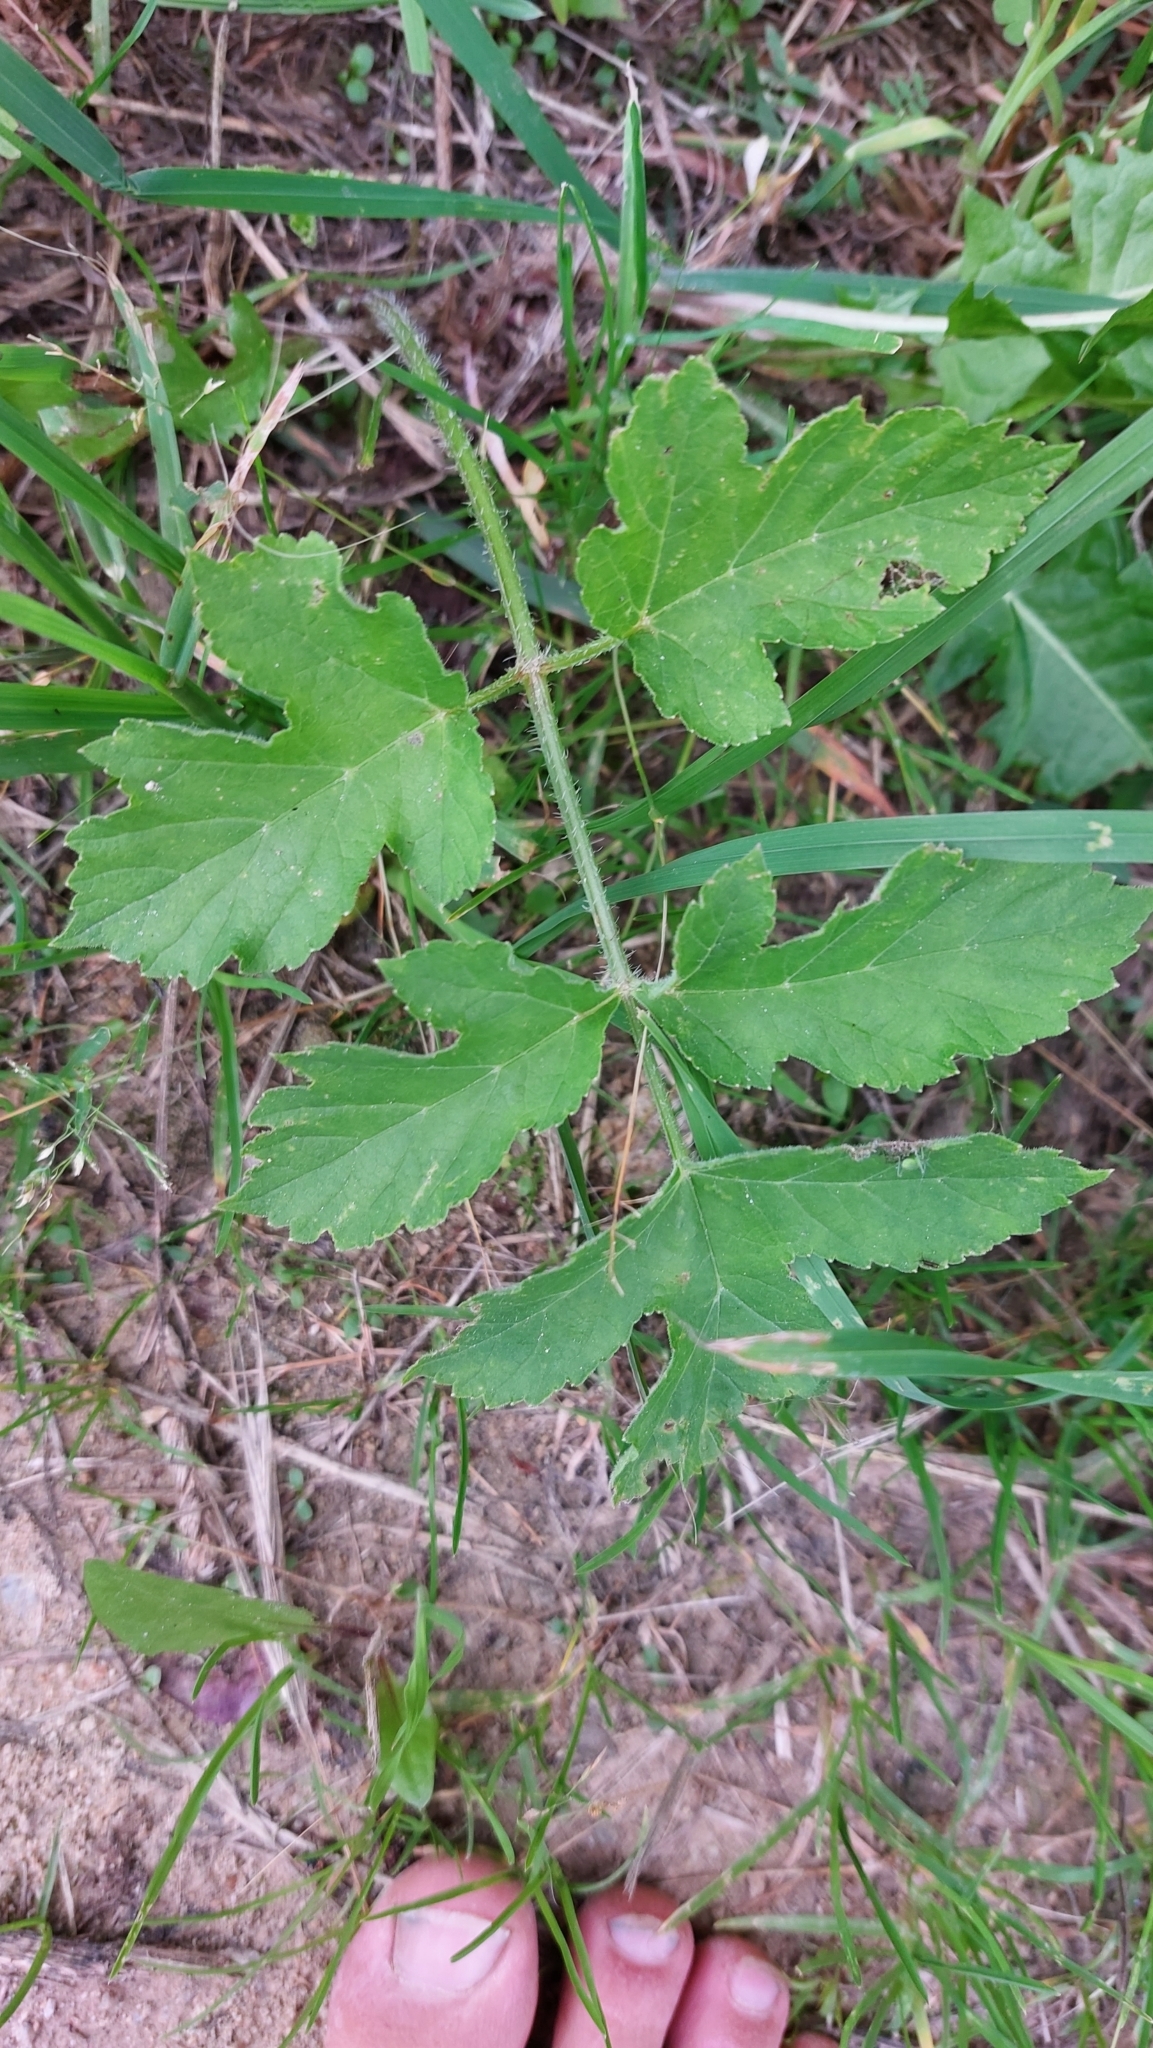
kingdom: Plantae
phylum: Tracheophyta
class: Magnoliopsida
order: Apiales
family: Apiaceae
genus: Heracleum
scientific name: Heracleum sphondylium
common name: Hogweed
